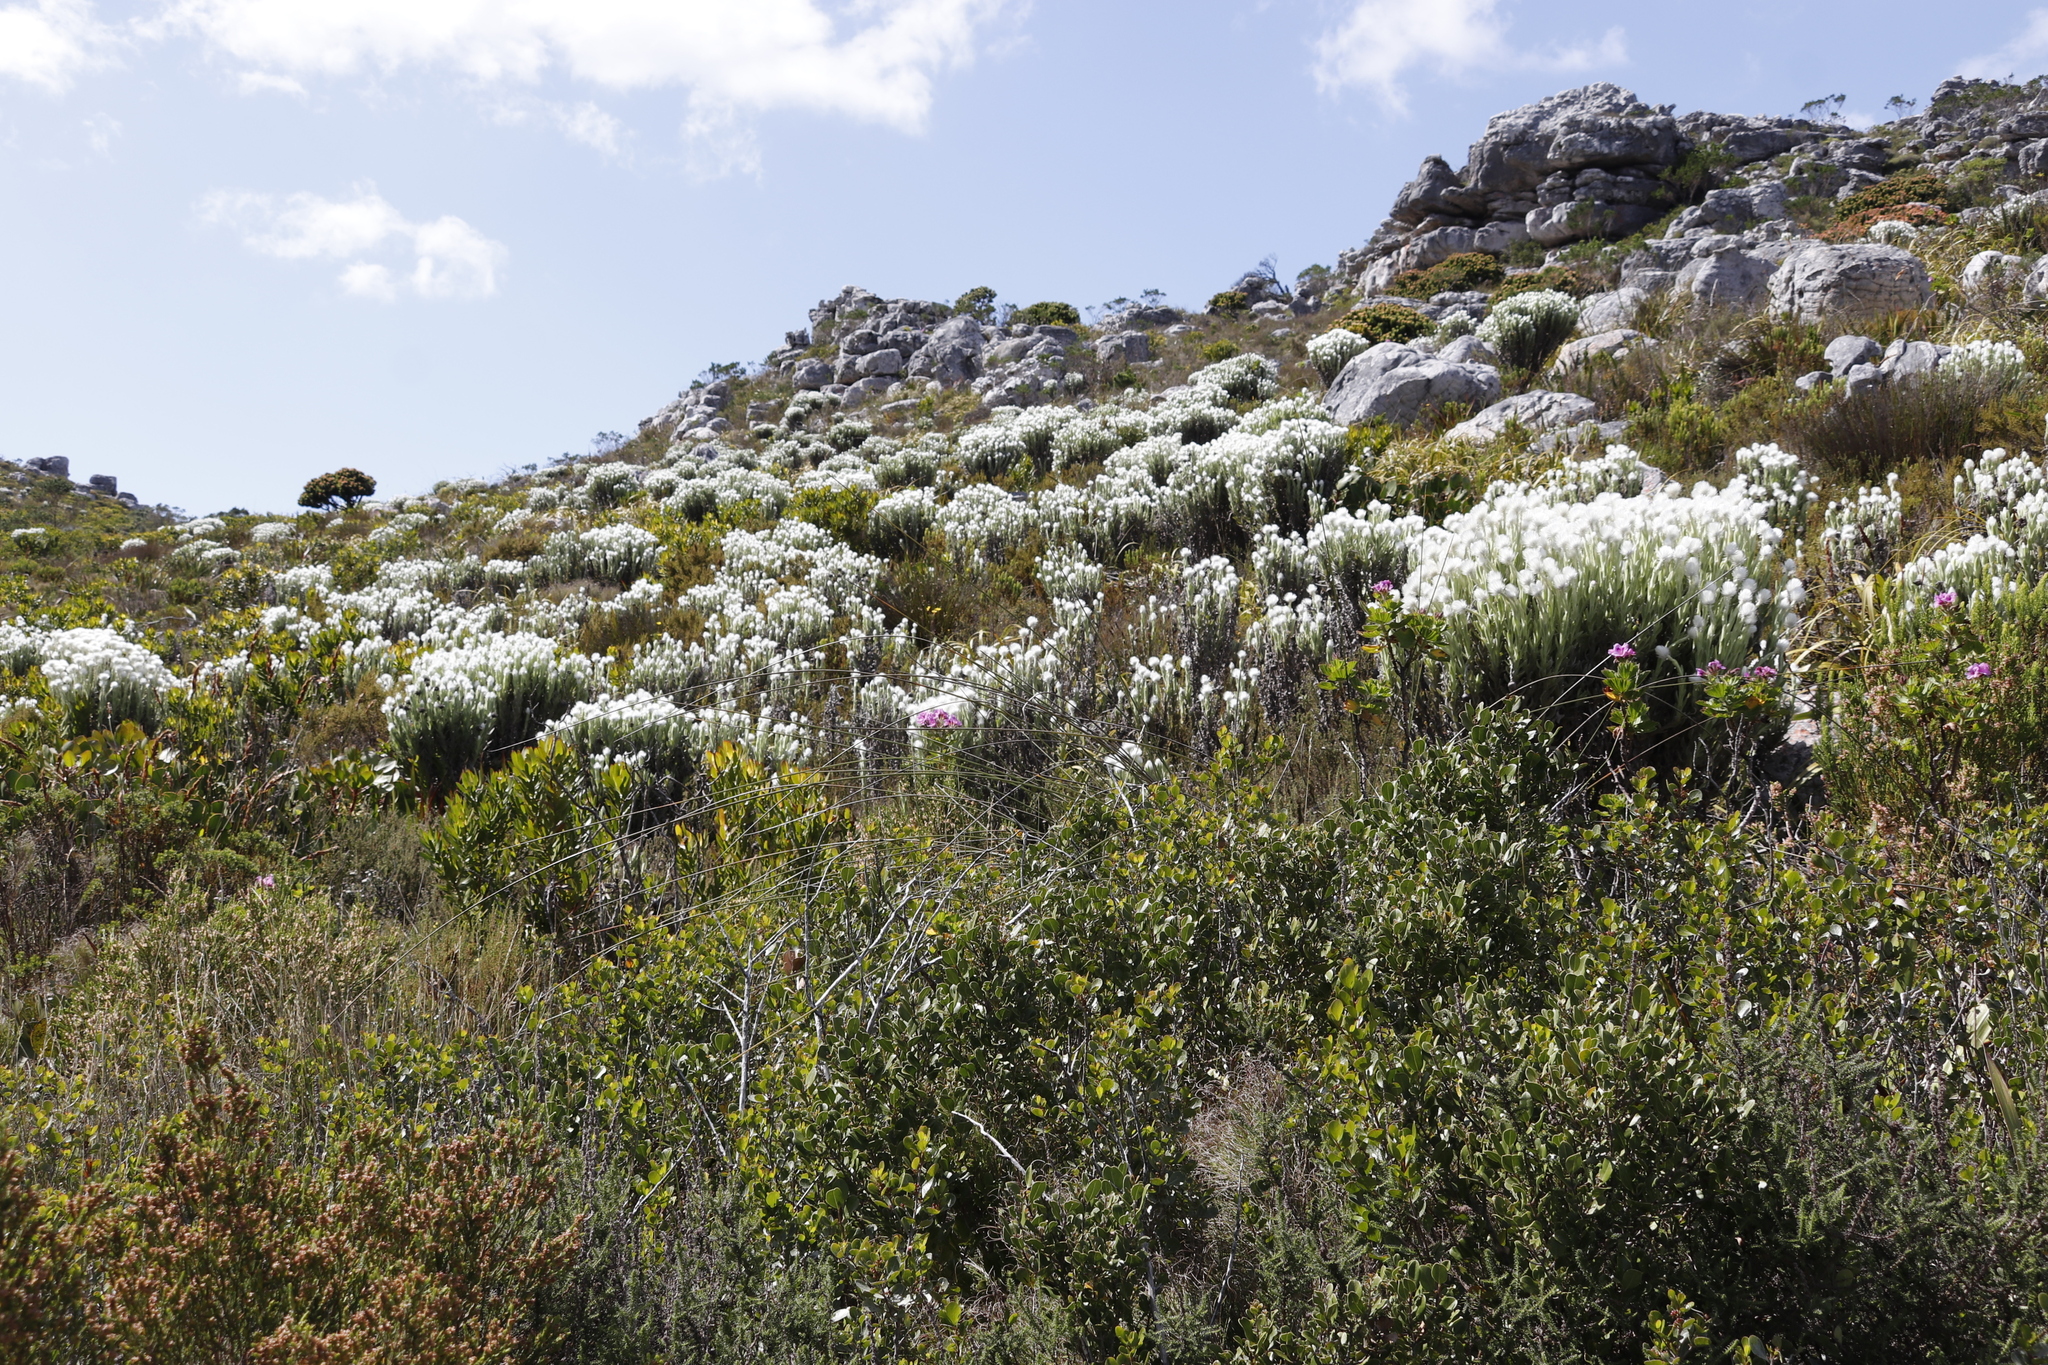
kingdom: Plantae
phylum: Tracheophyta
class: Magnoliopsida
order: Asterales
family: Asteraceae
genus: Syncarpha
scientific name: Syncarpha vestita
